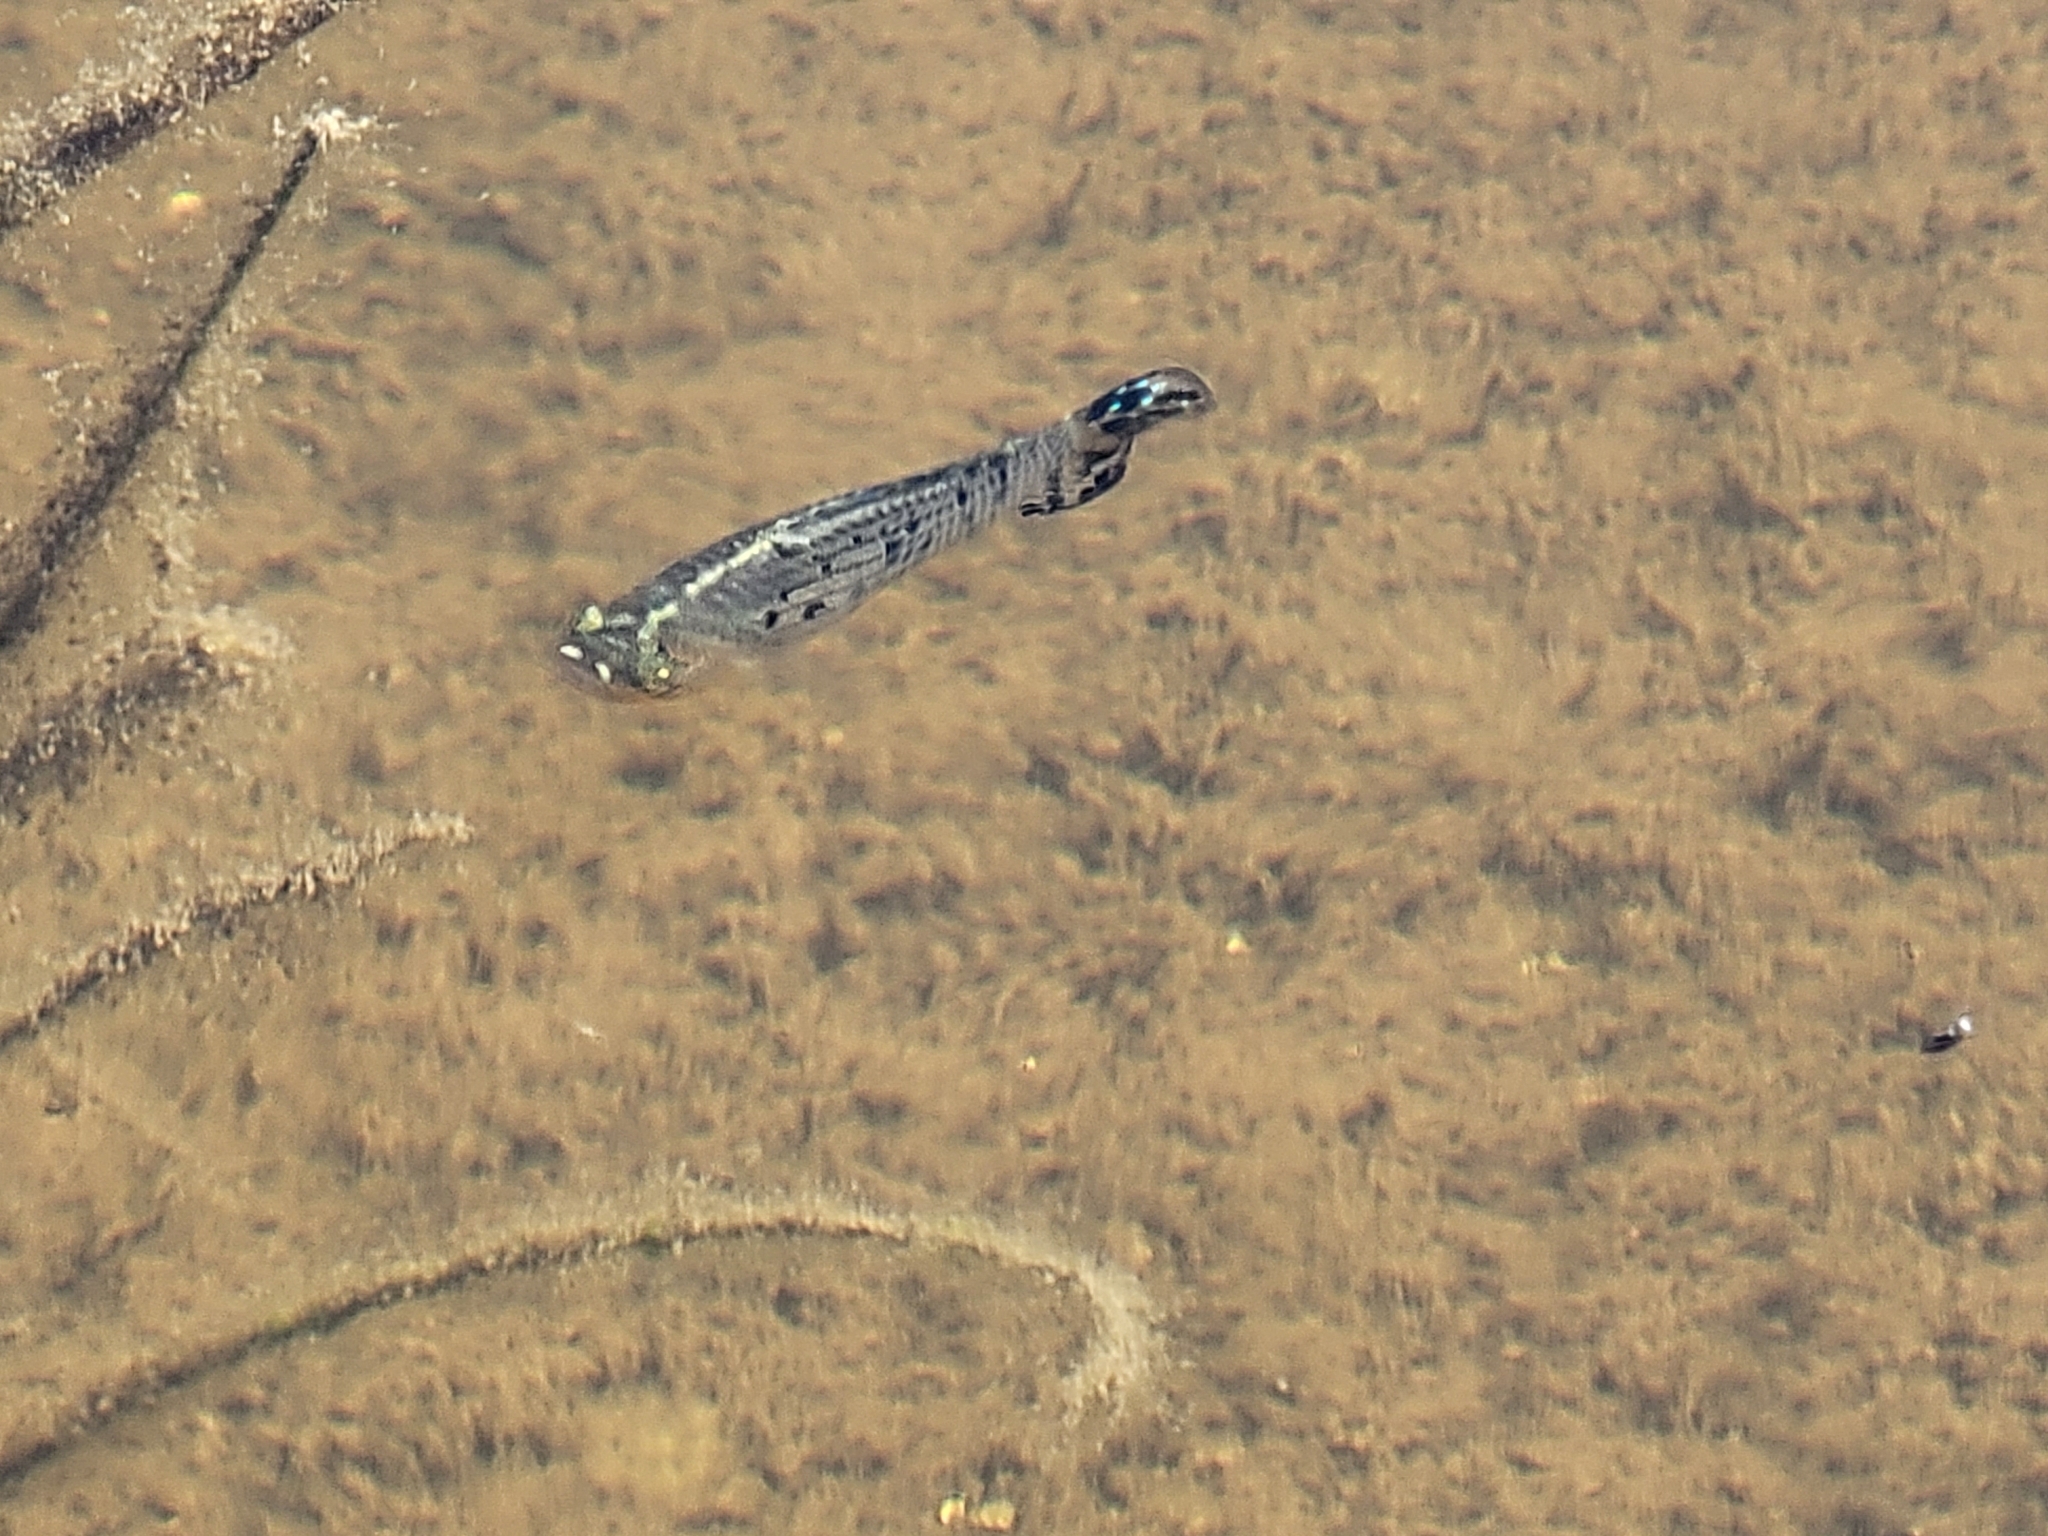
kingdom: Animalia
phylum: Chordata
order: Cyprinodontiformes
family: Poeciliidae
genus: Poecilia
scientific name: Poecilia latipinna
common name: Sailfin molly
